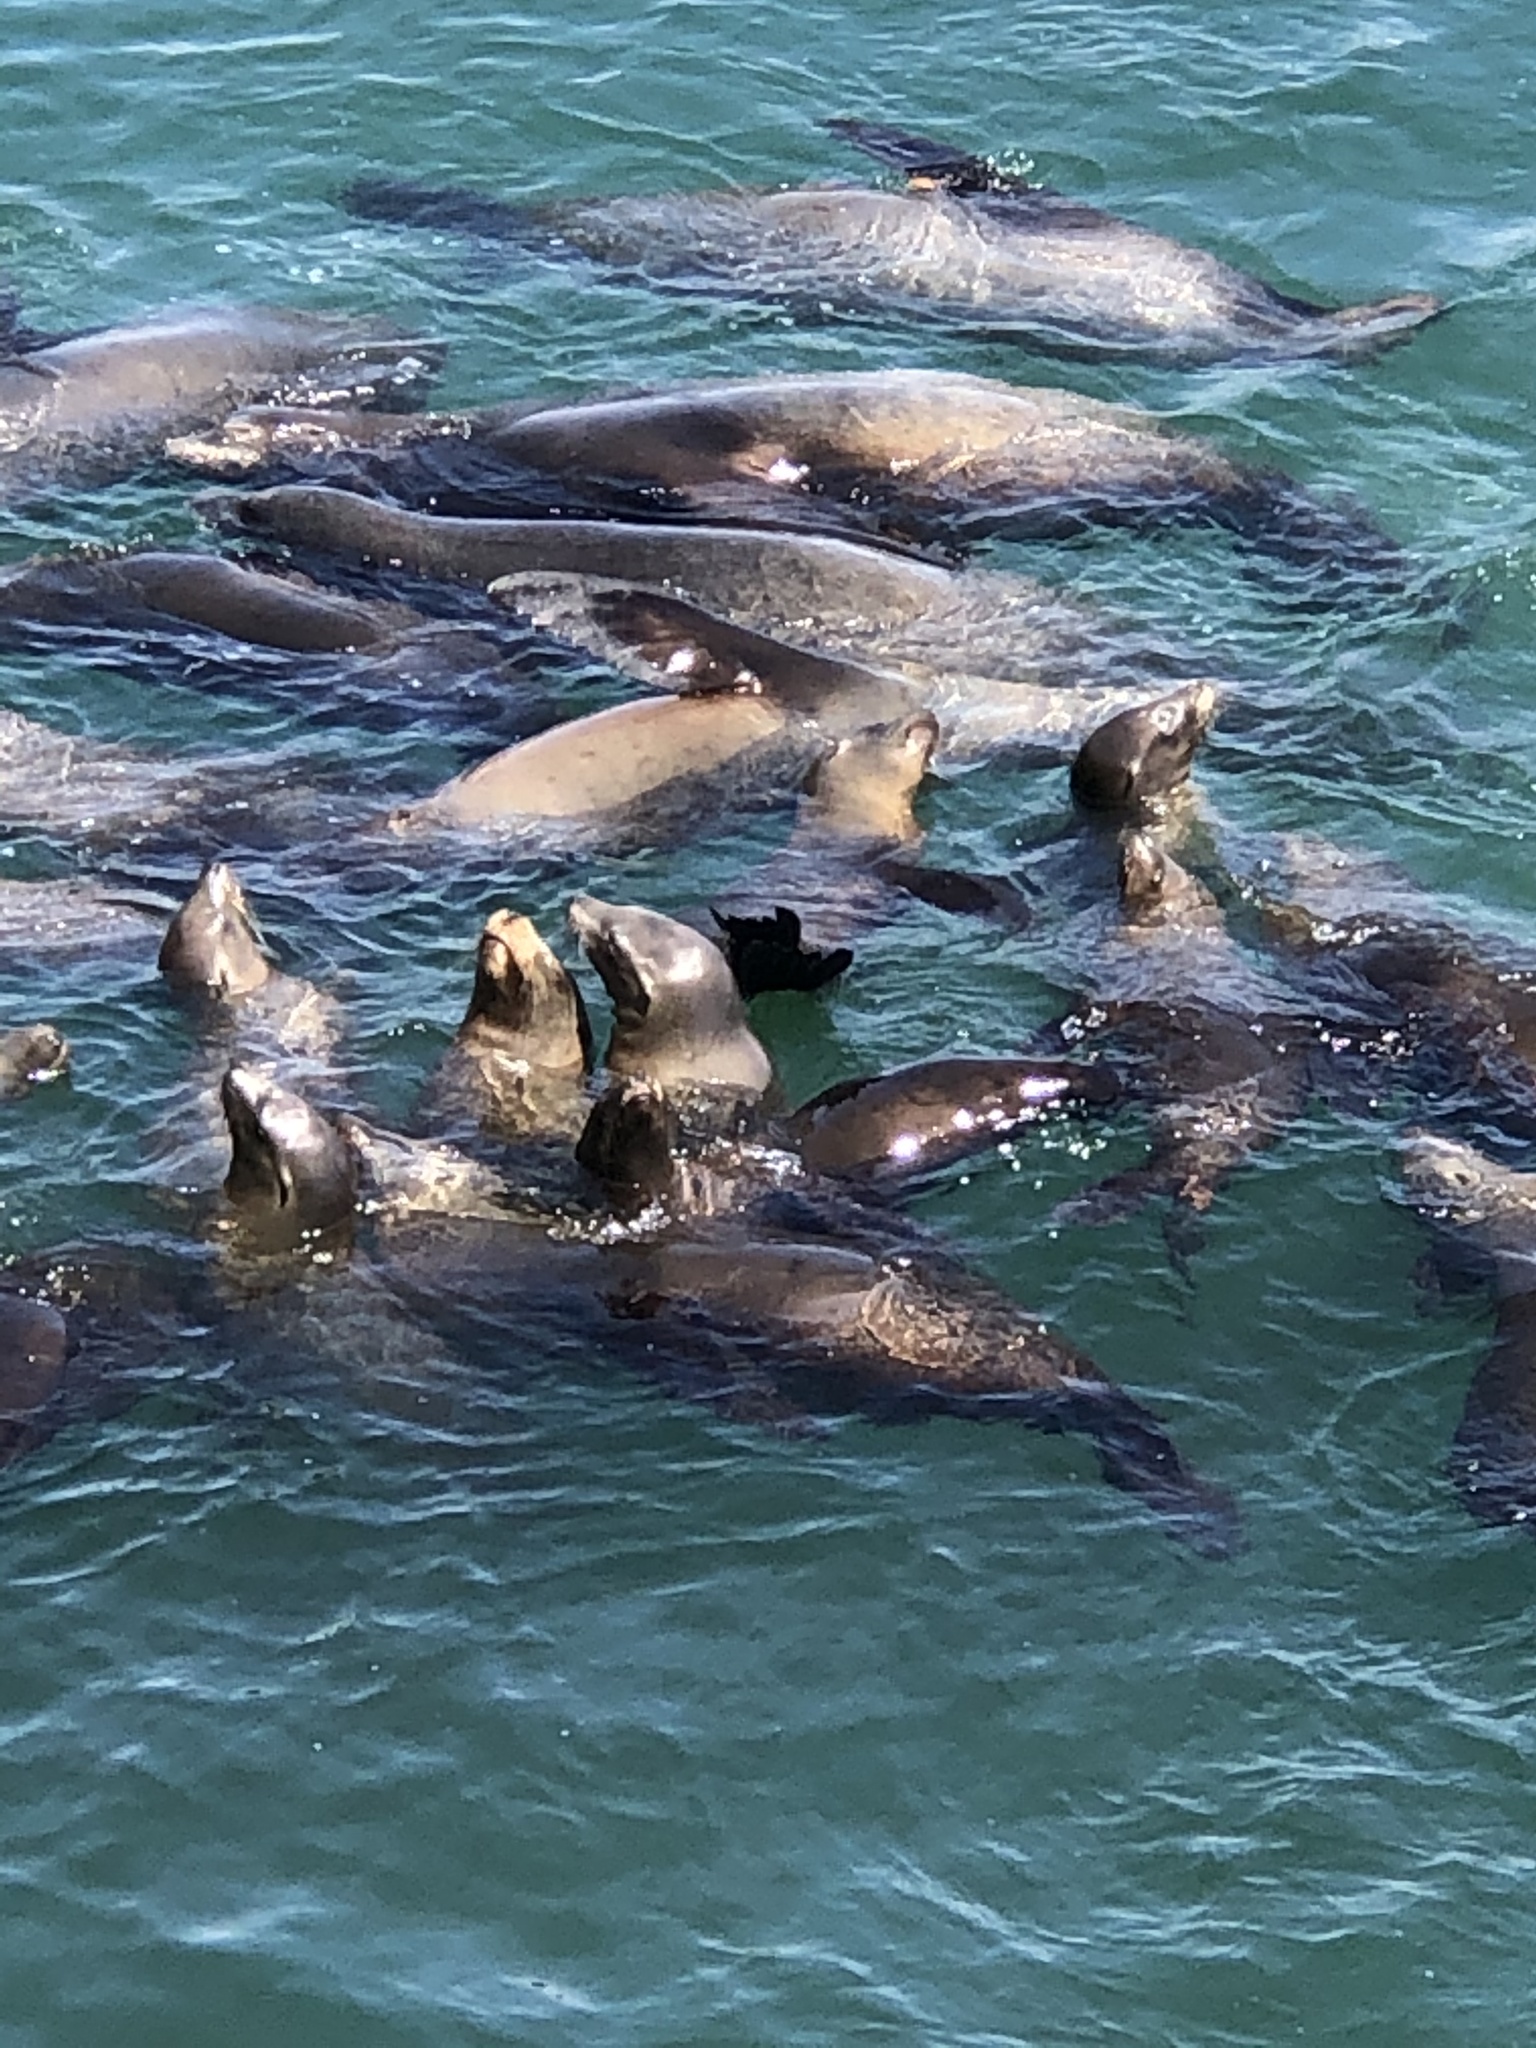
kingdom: Animalia
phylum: Chordata
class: Mammalia
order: Carnivora
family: Otariidae
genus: Zalophus
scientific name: Zalophus californianus
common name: California sea lion
